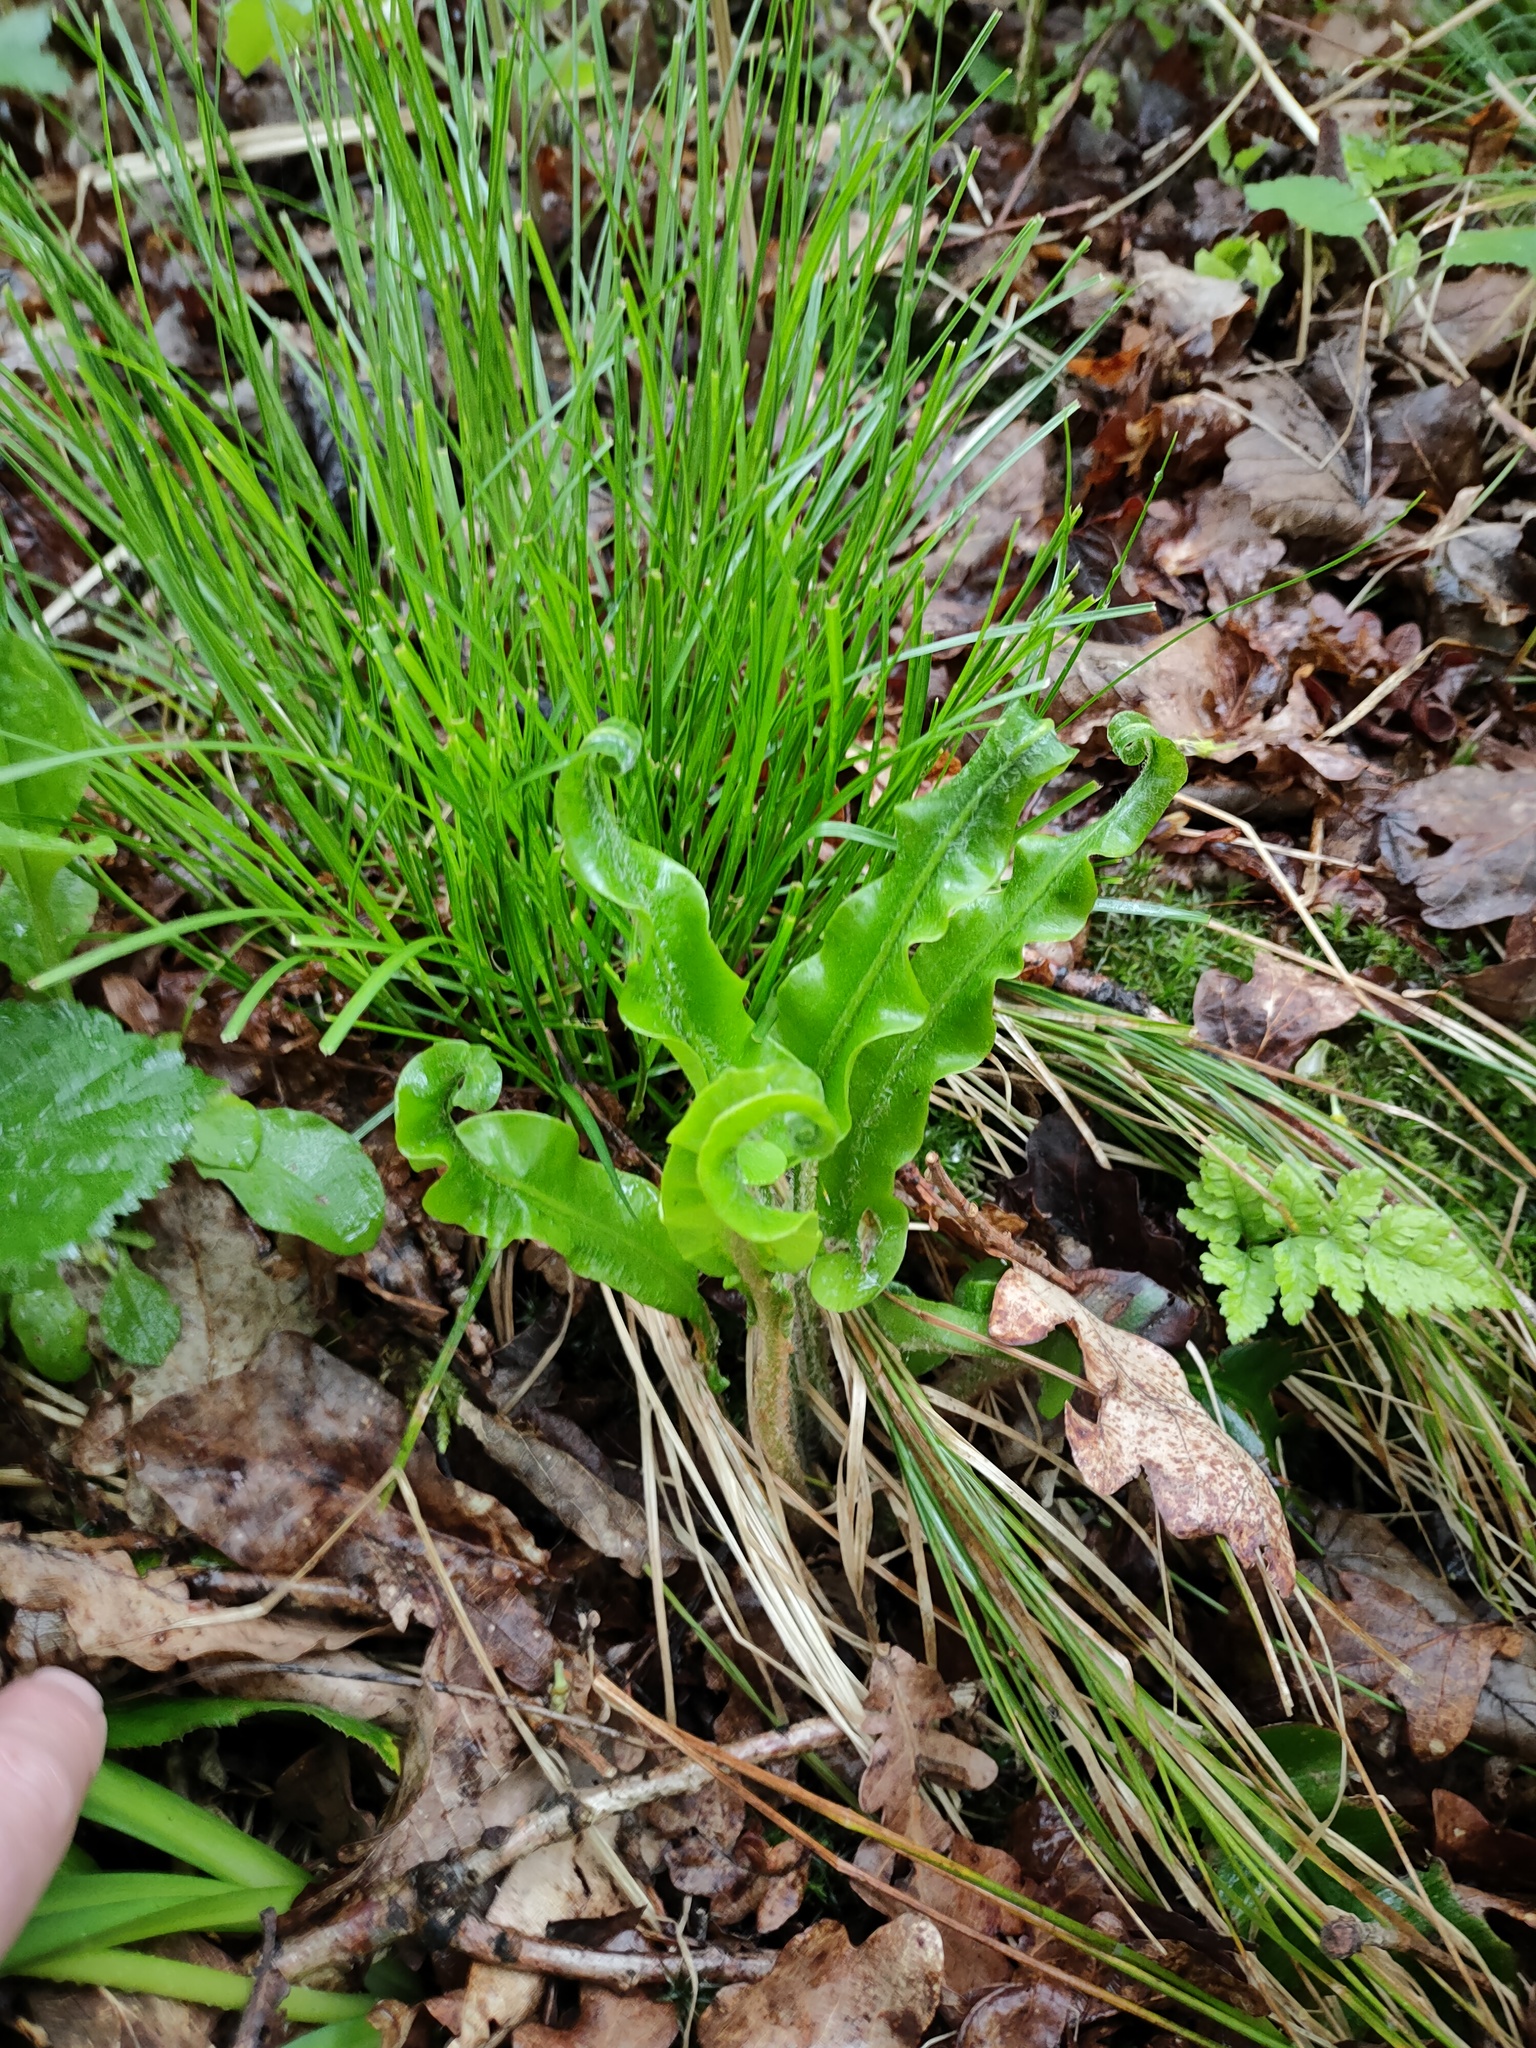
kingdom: Plantae
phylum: Tracheophyta
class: Polypodiopsida
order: Polypodiales
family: Aspleniaceae
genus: Asplenium
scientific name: Asplenium scolopendrium
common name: Hart's-tongue fern
